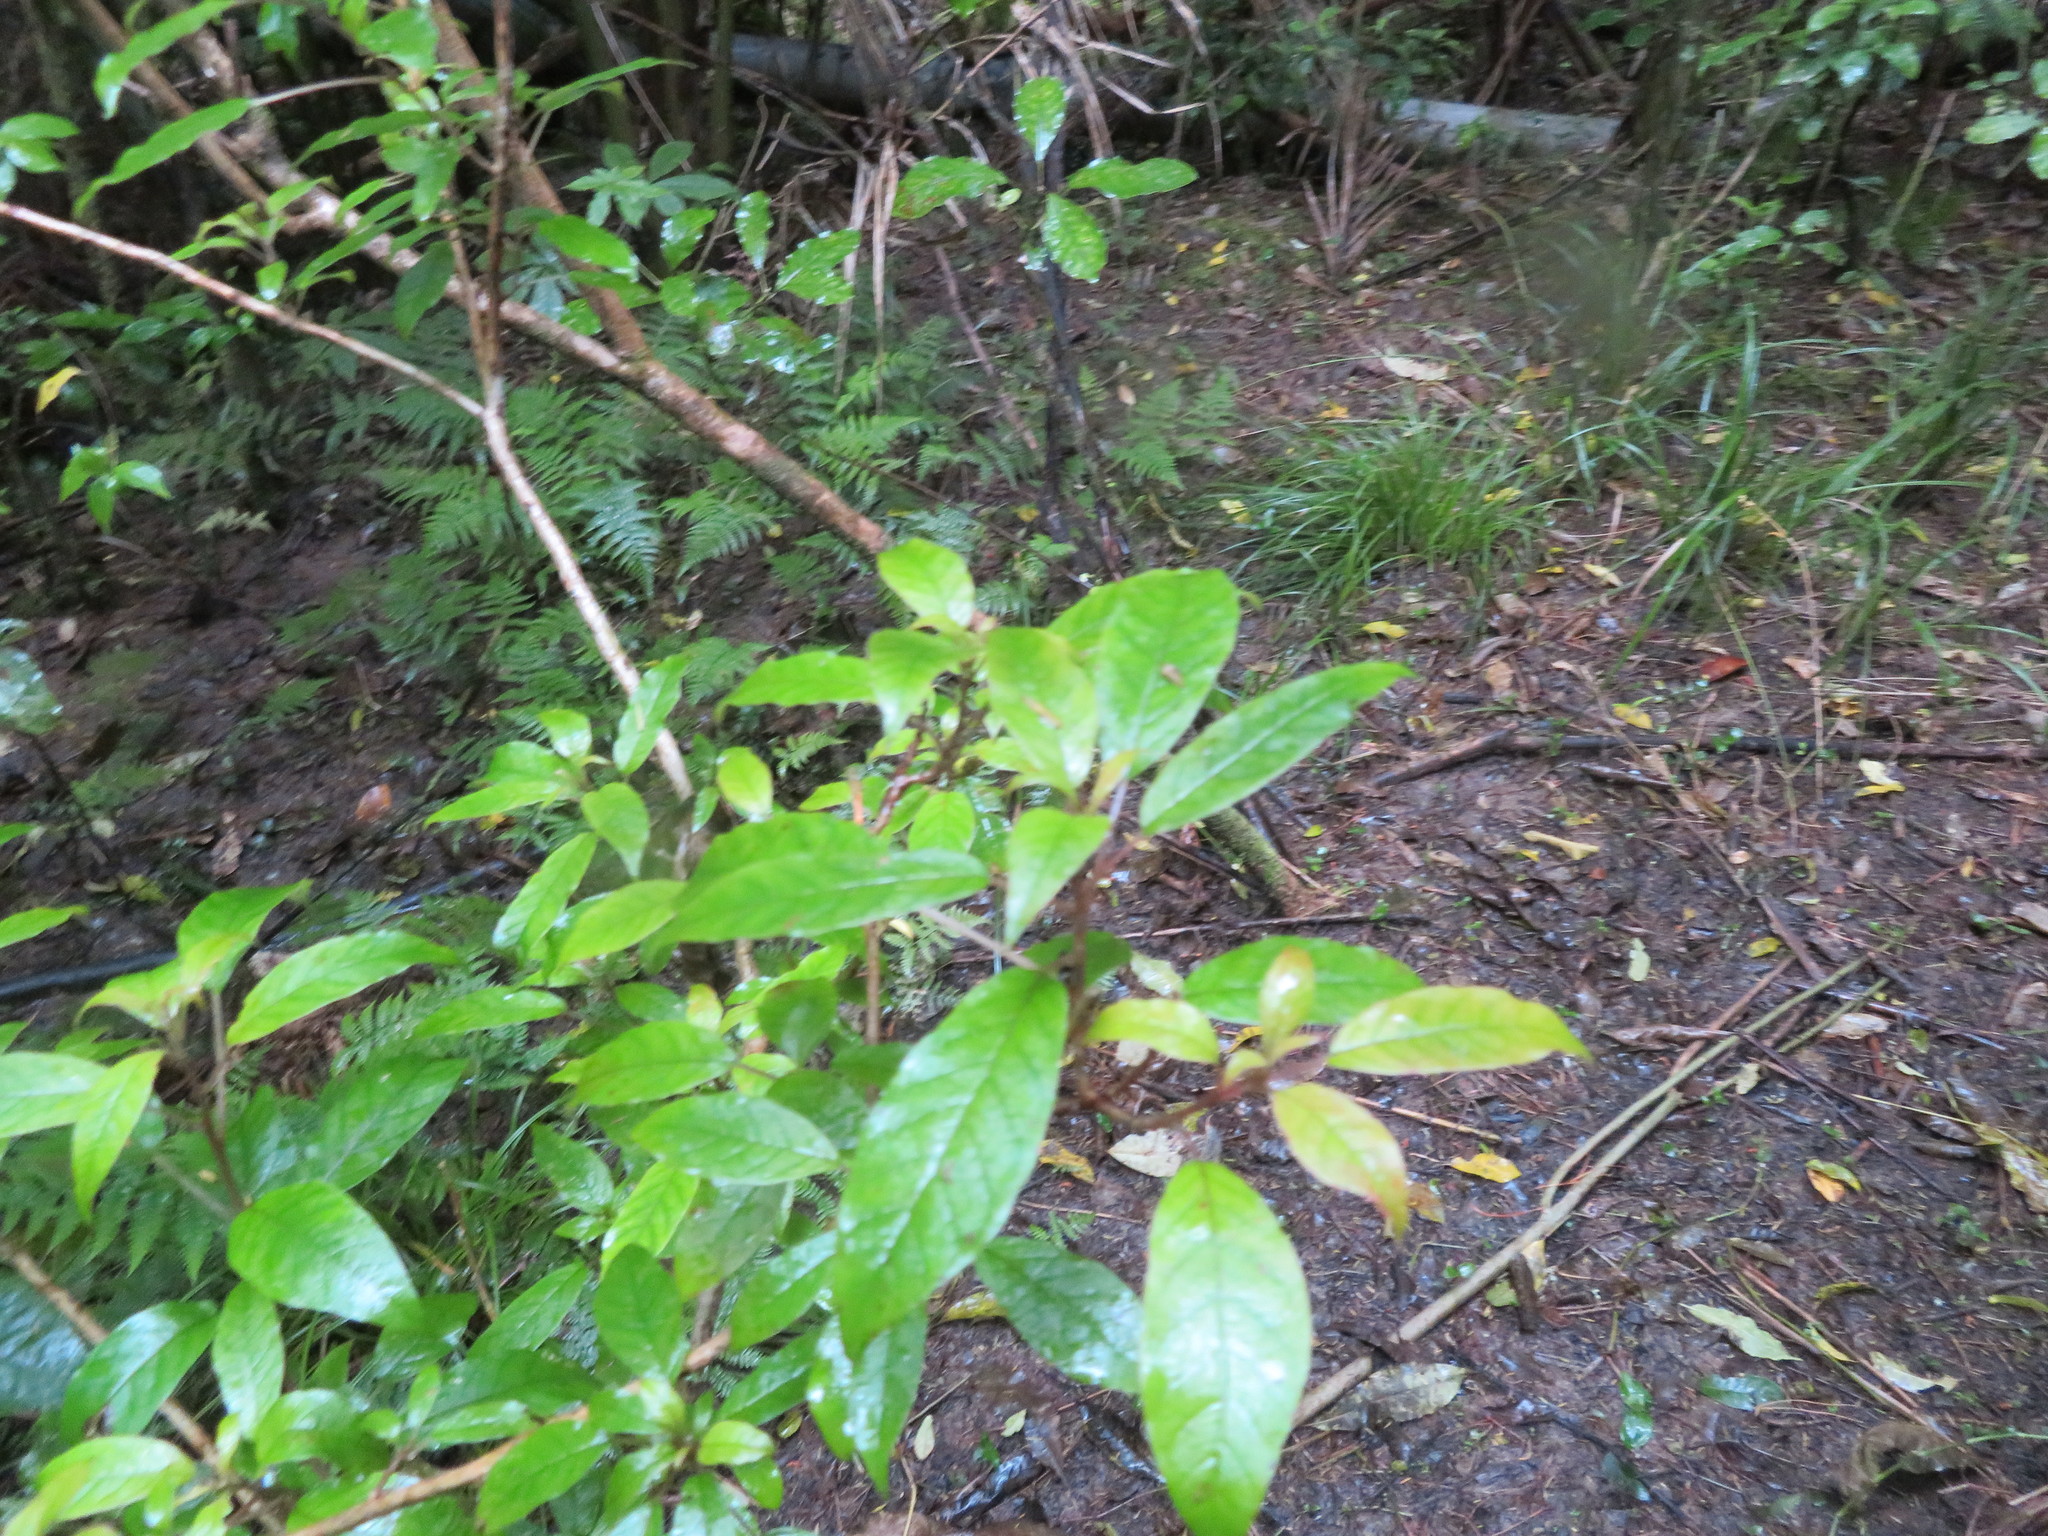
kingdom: Plantae
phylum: Tracheophyta
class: Magnoliopsida
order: Myrtales
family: Onagraceae
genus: Fuchsia
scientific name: Fuchsia excorticata
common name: Tree fuchsia
